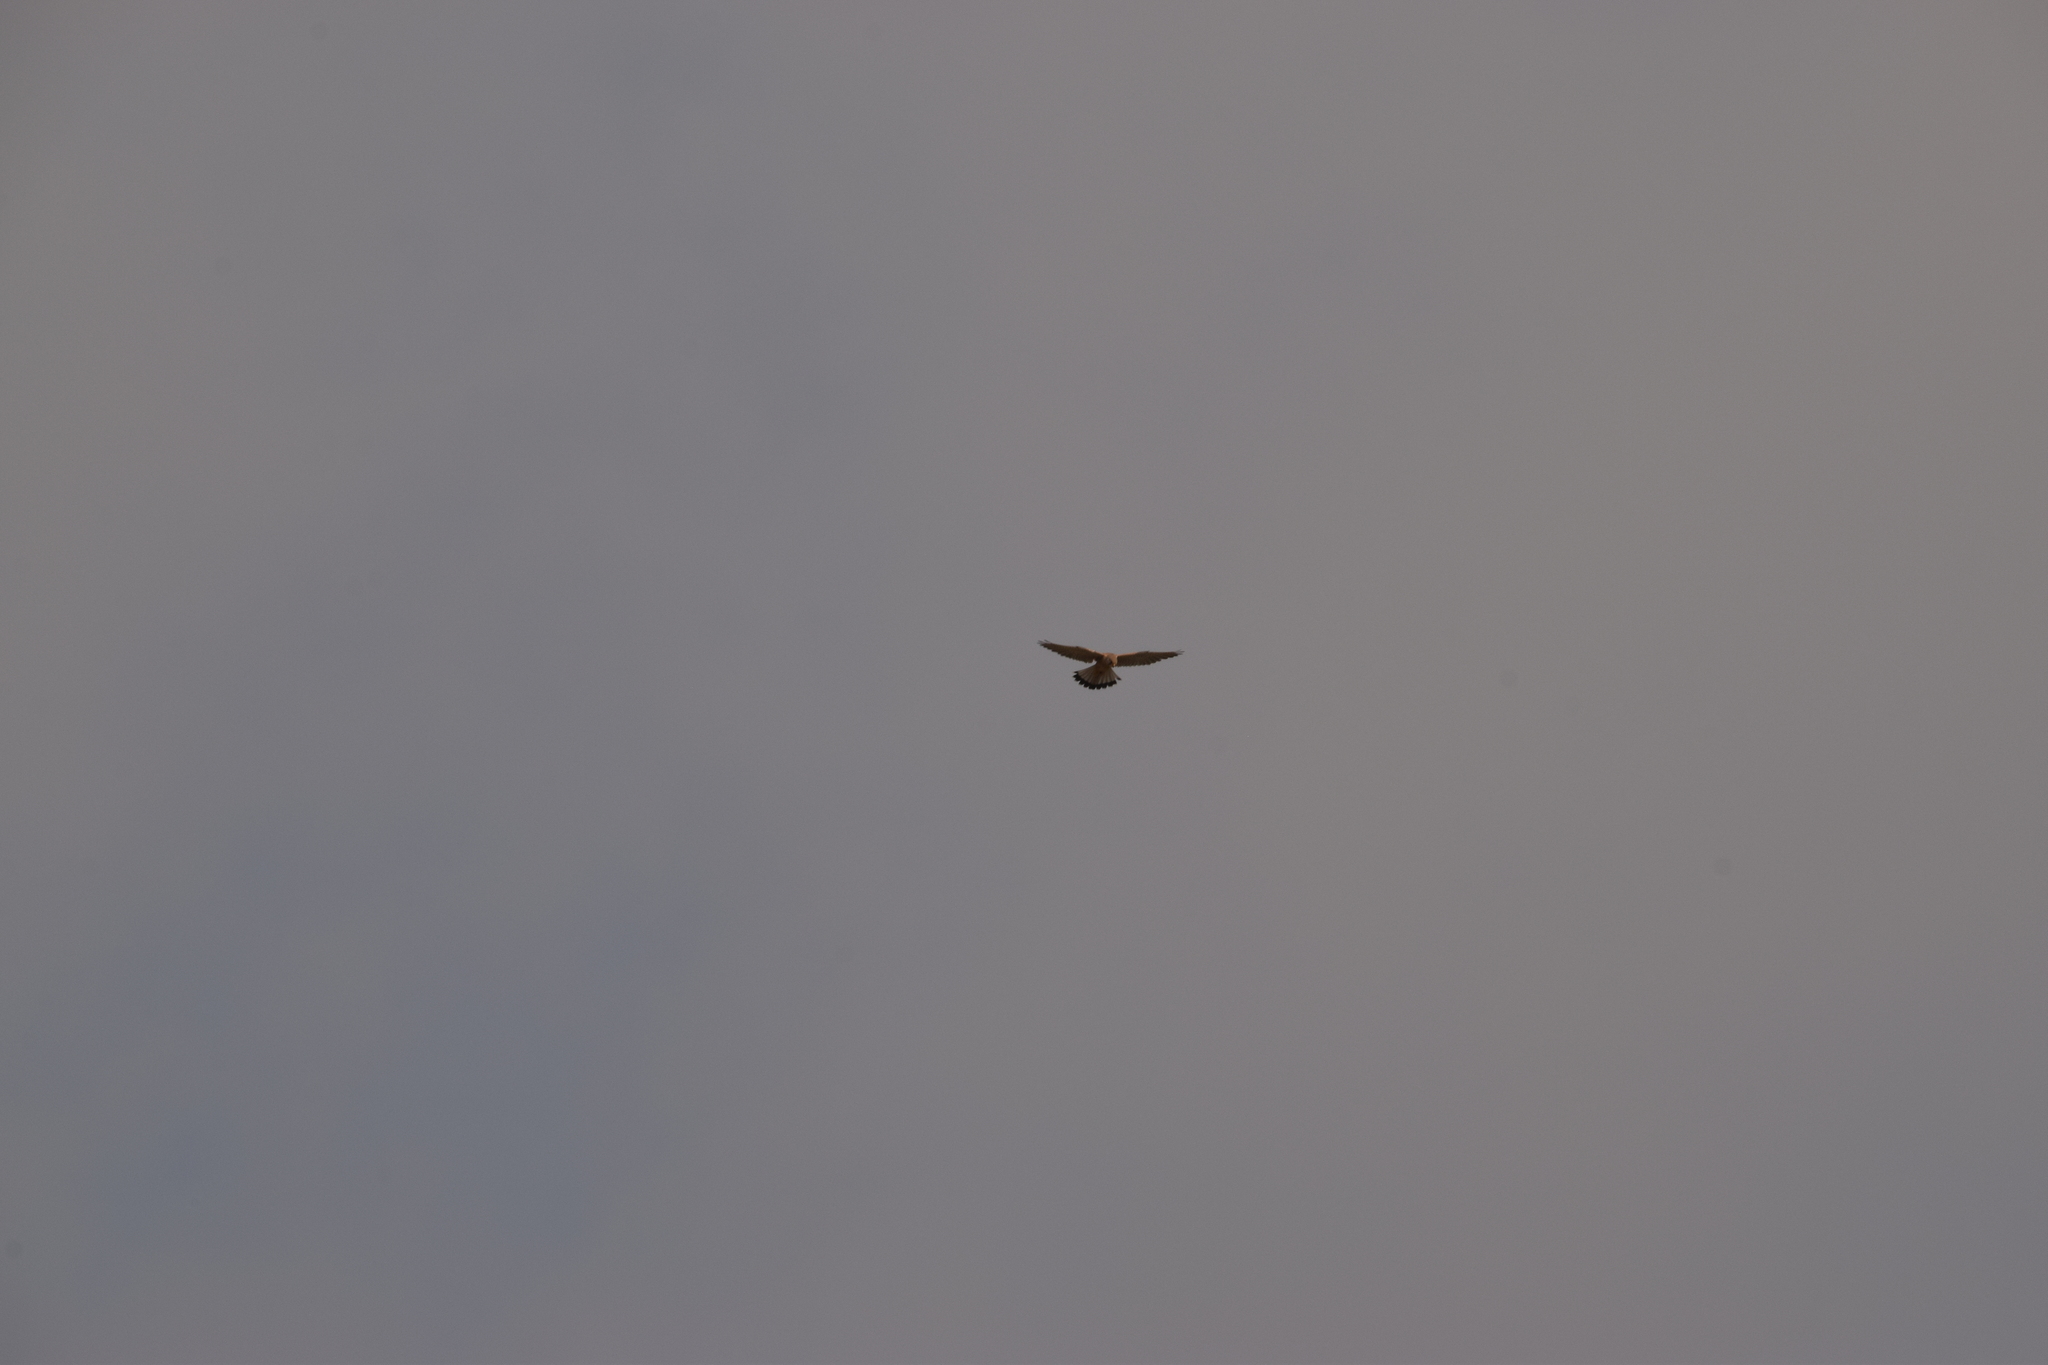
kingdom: Animalia
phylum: Chordata
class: Aves
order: Falconiformes
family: Falconidae
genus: Falco
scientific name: Falco tinnunculus
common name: Common kestrel
